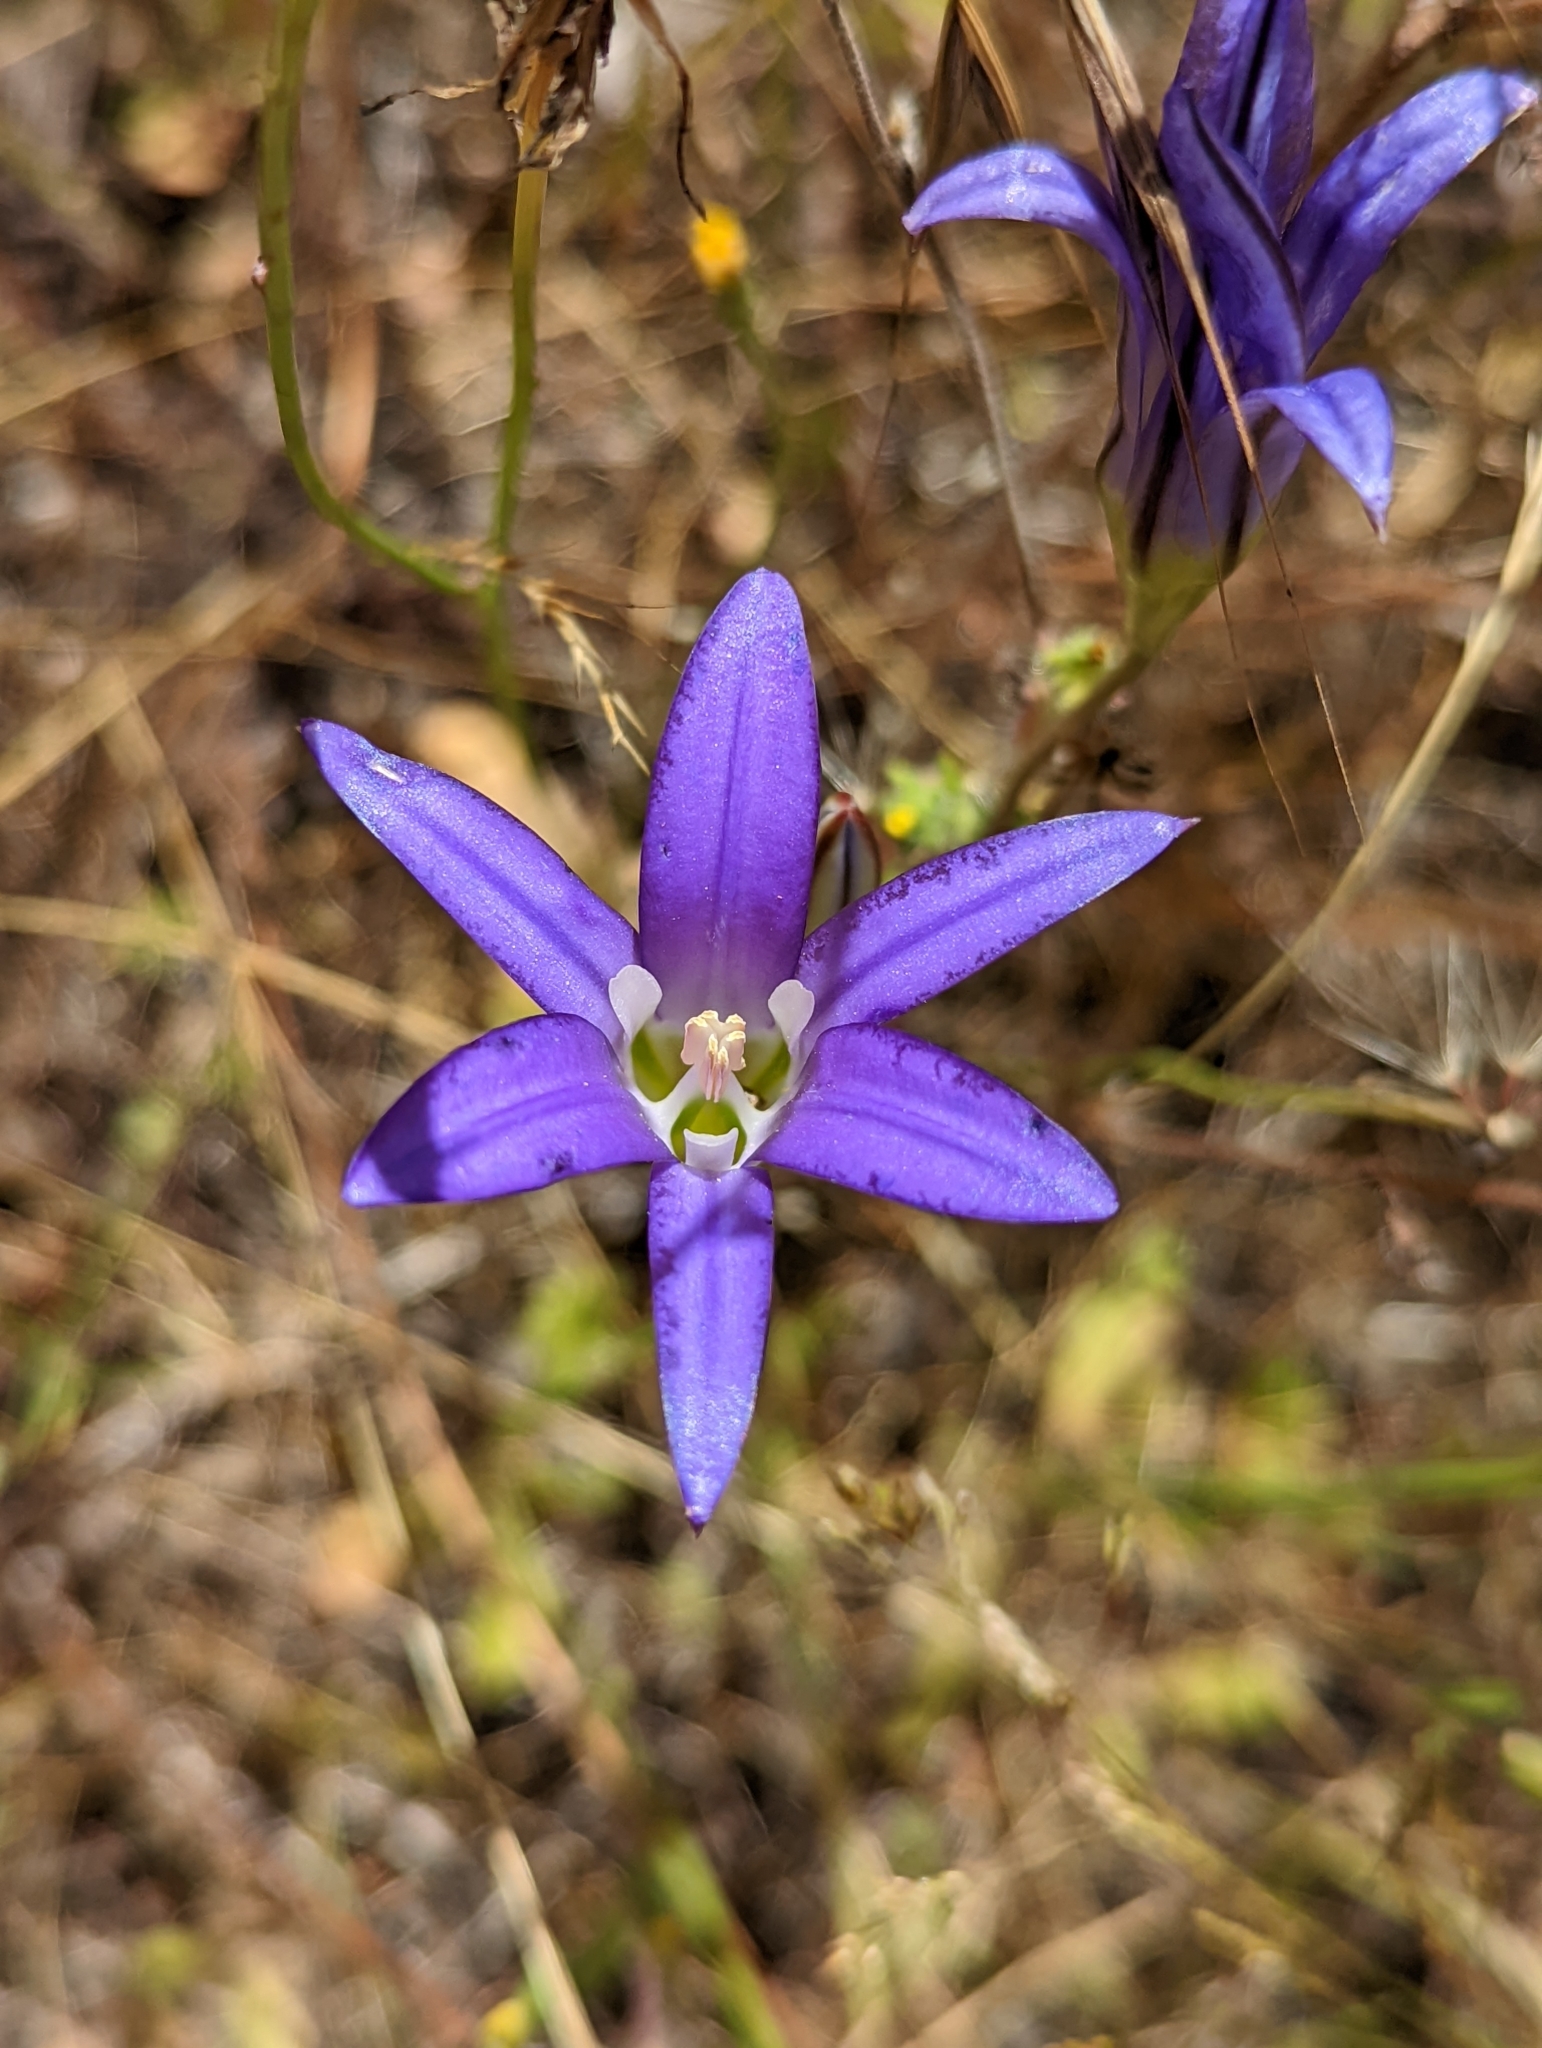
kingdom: Plantae
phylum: Tracheophyta
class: Liliopsida
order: Asparagales
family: Asparagaceae
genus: Brodiaea
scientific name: Brodiaea elegans
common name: Elegant cluster-lily
